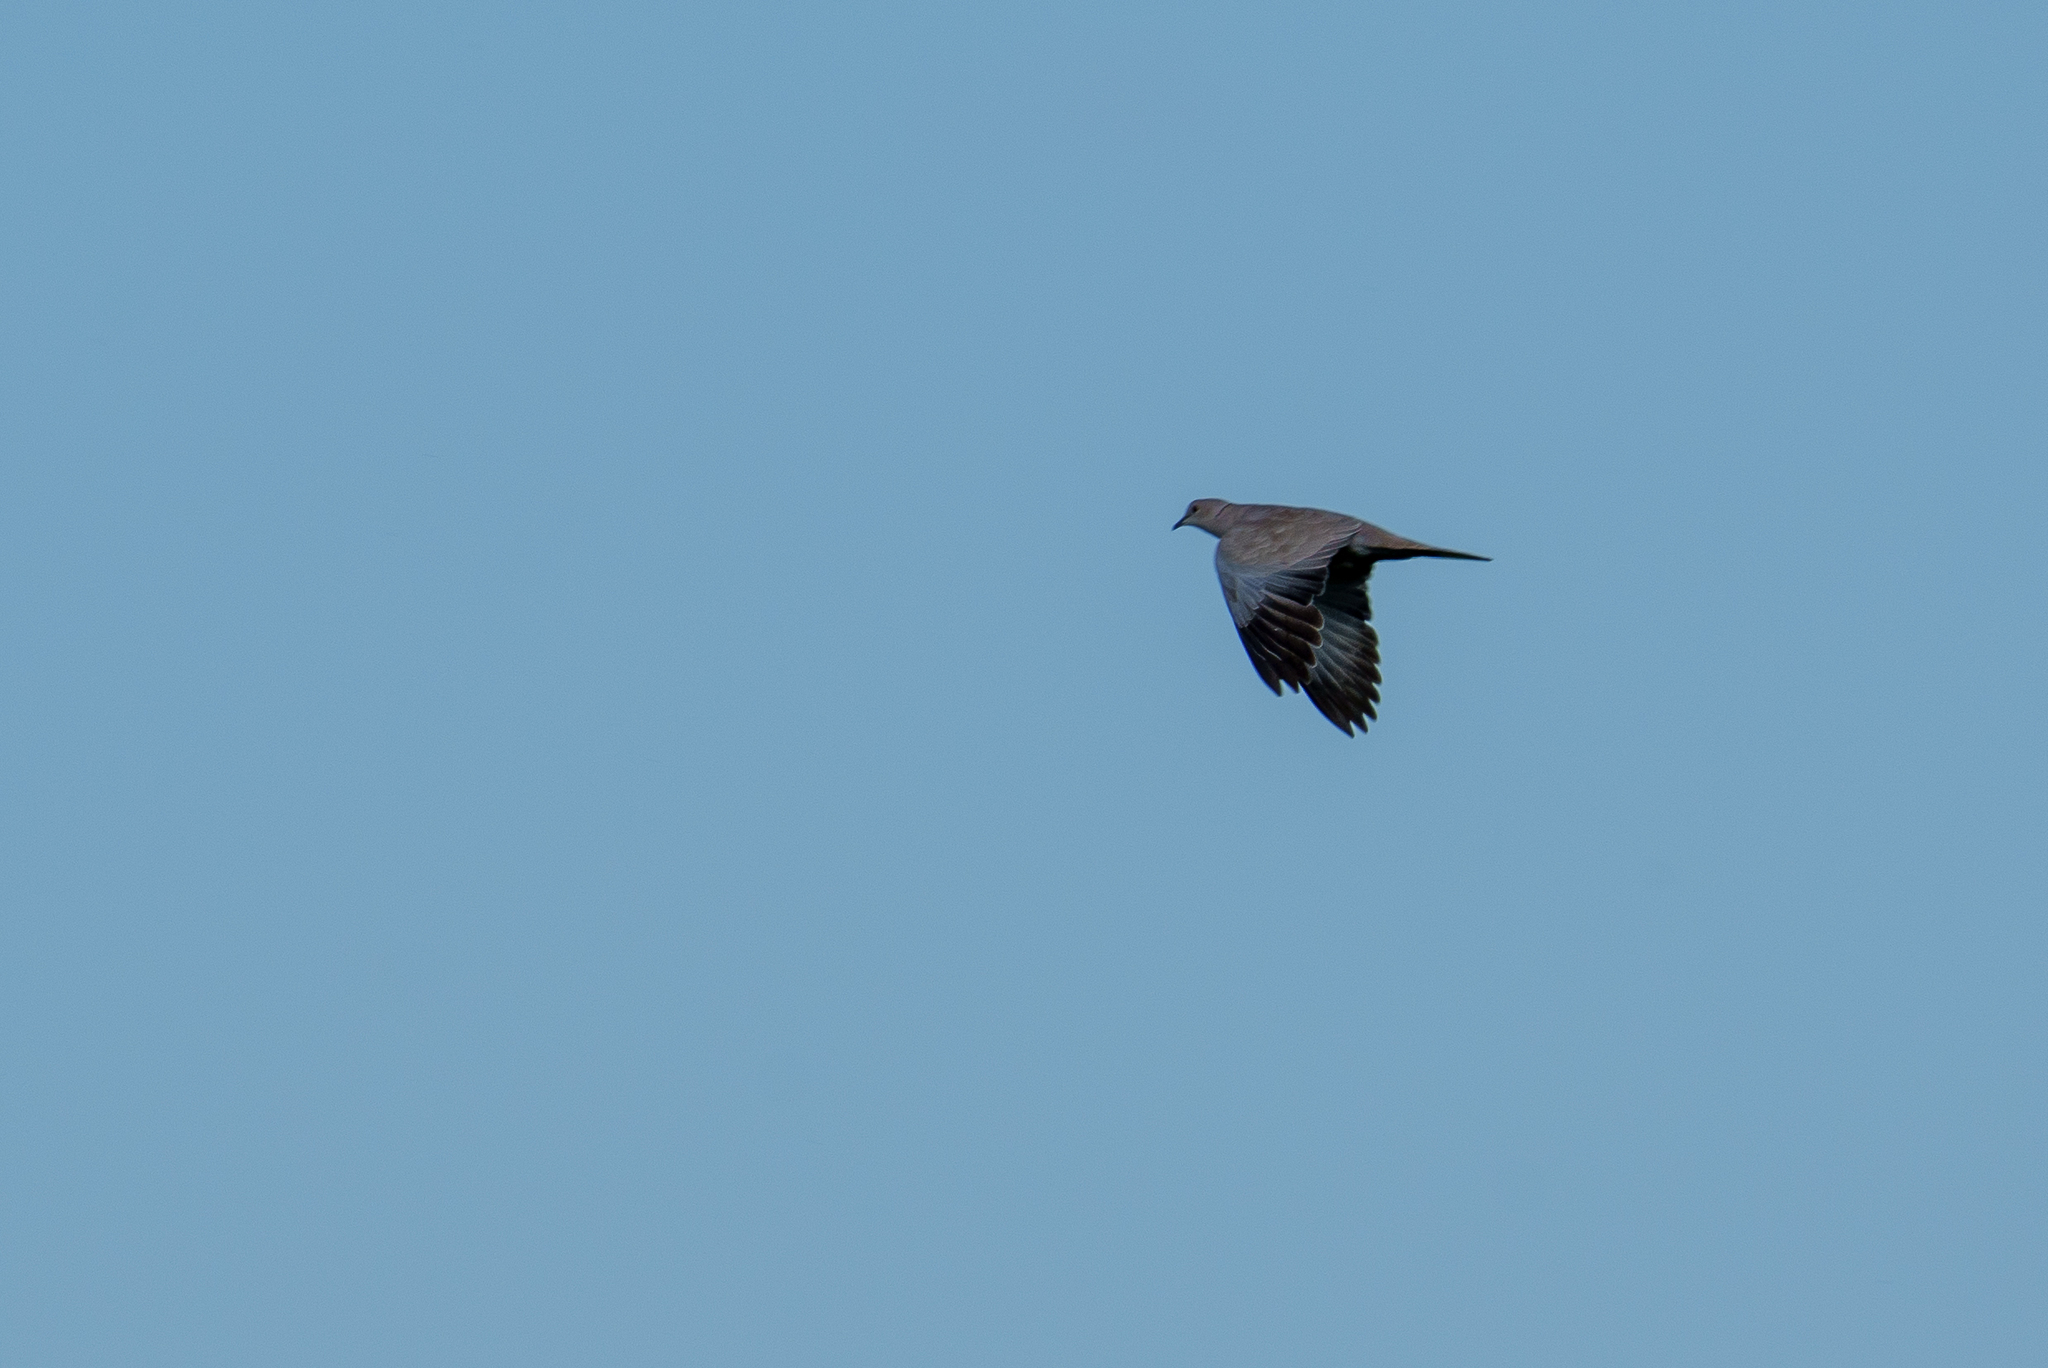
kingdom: Animalia
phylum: Chordata
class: Aves
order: Columbiformes
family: Columbidae
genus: Streptopelia
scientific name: Streptopelia decaocto
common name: Eurasian collared dove
